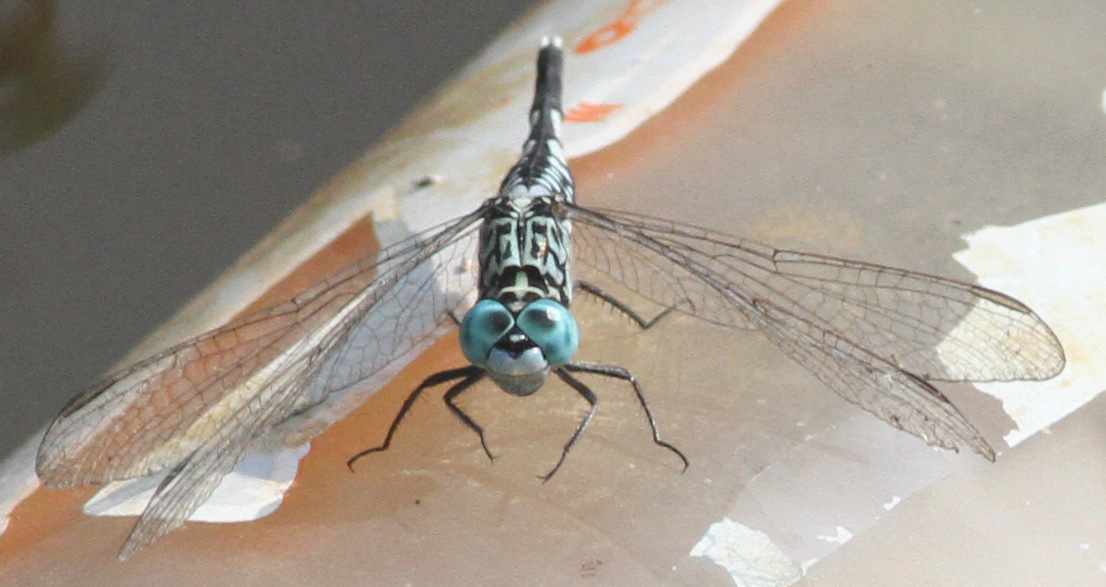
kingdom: Animalia
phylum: Arthropoda
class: Insecta
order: Odonata
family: Libellulidae
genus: Acisoma
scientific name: Acisoma panorpoides
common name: Asian pintail
